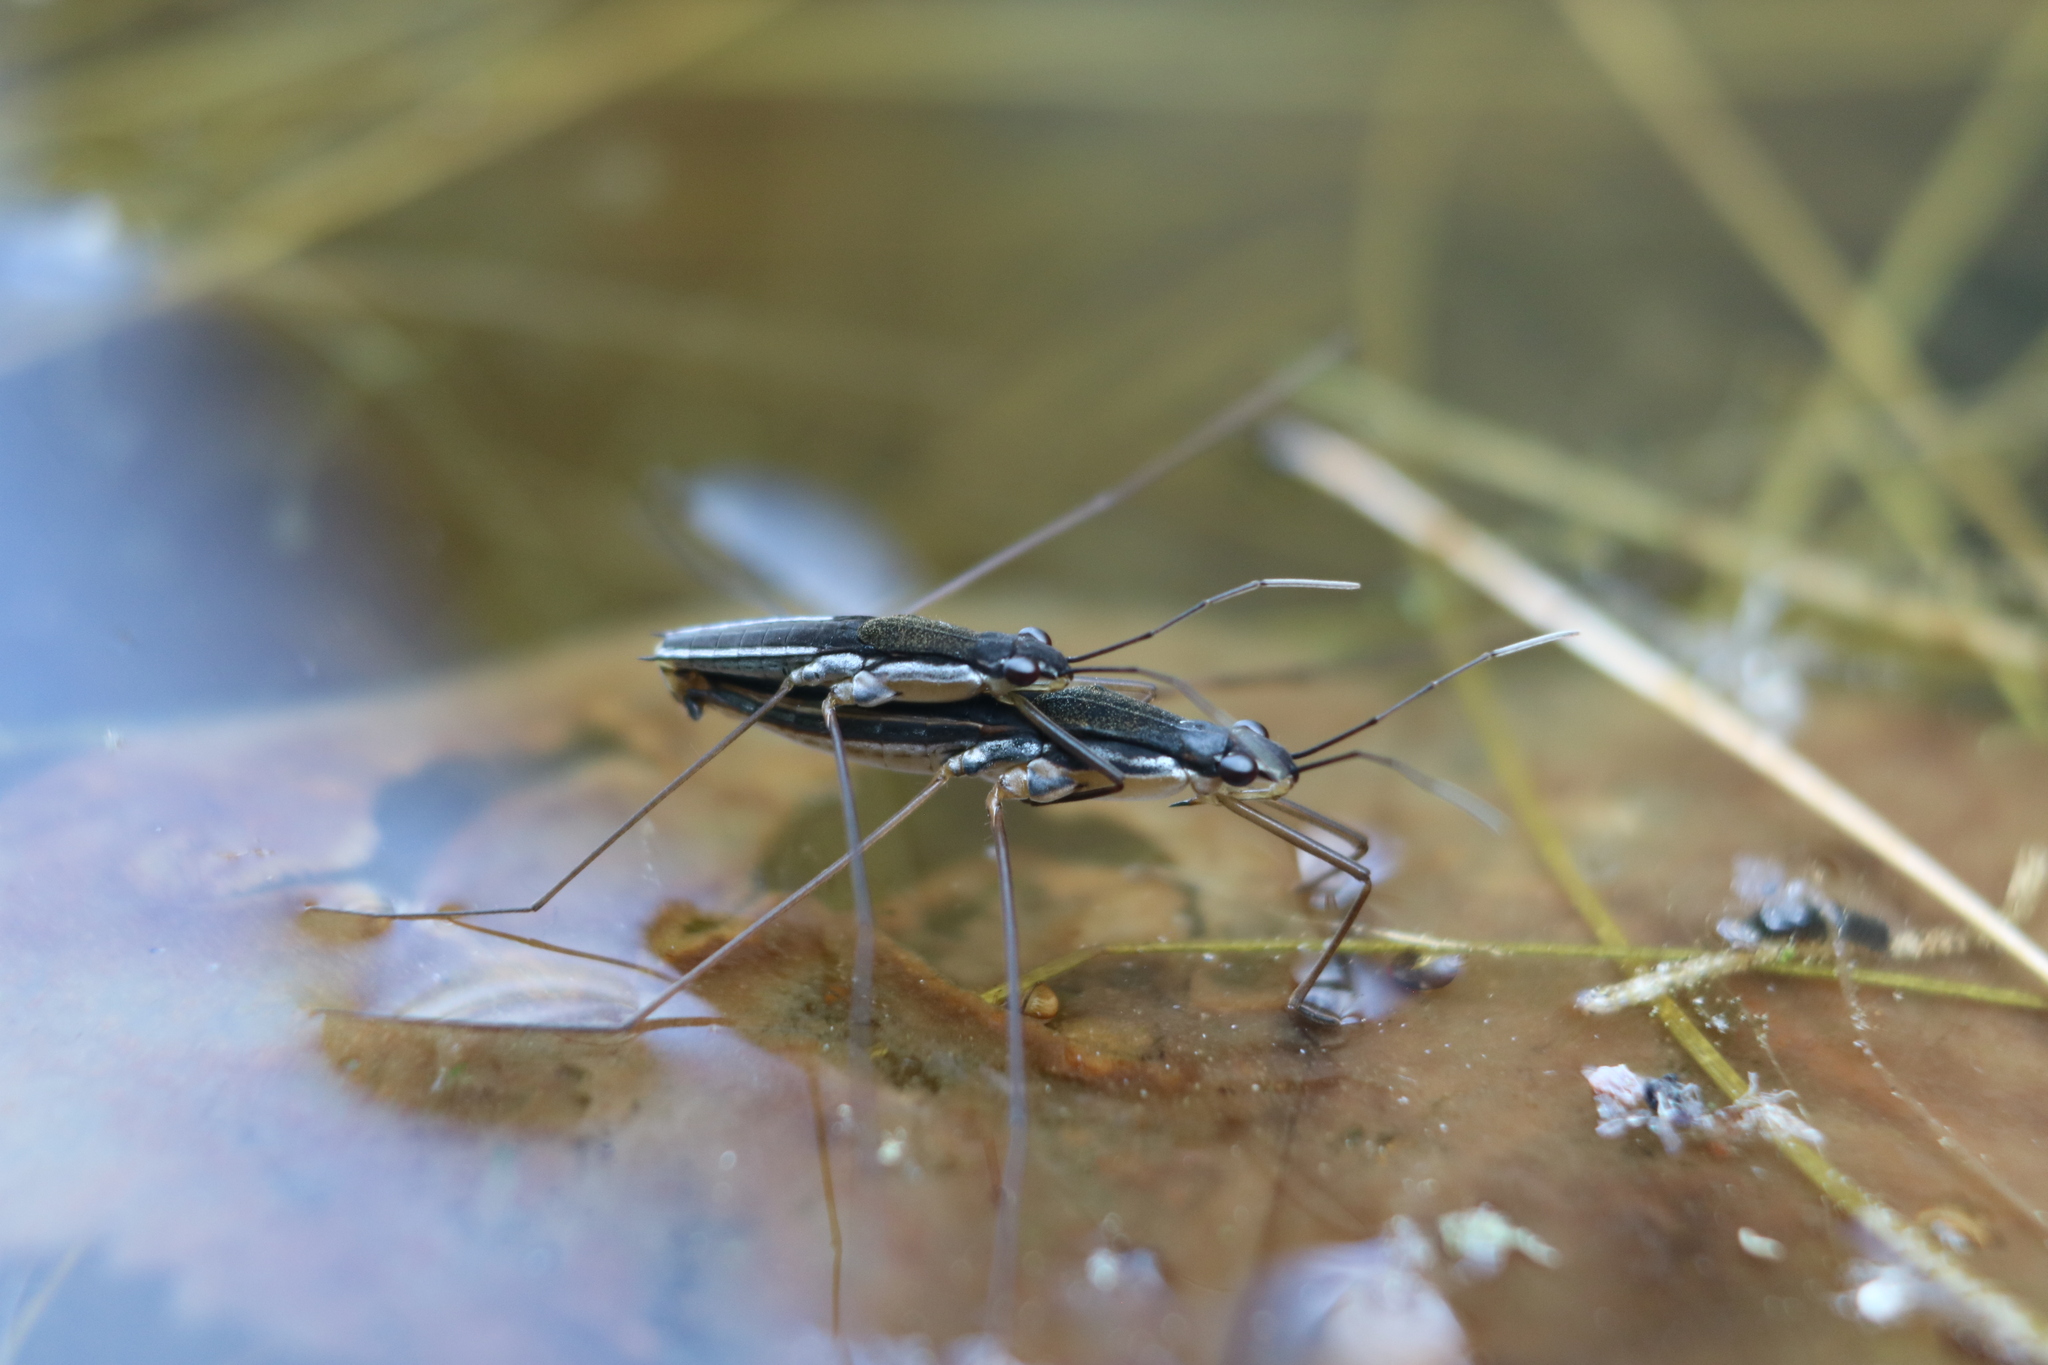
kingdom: Animalia
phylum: Arthropoda
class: Insecta
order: Hemiptera
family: Gerridae
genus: Limnoporus
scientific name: Limnoporus canaliculatus
